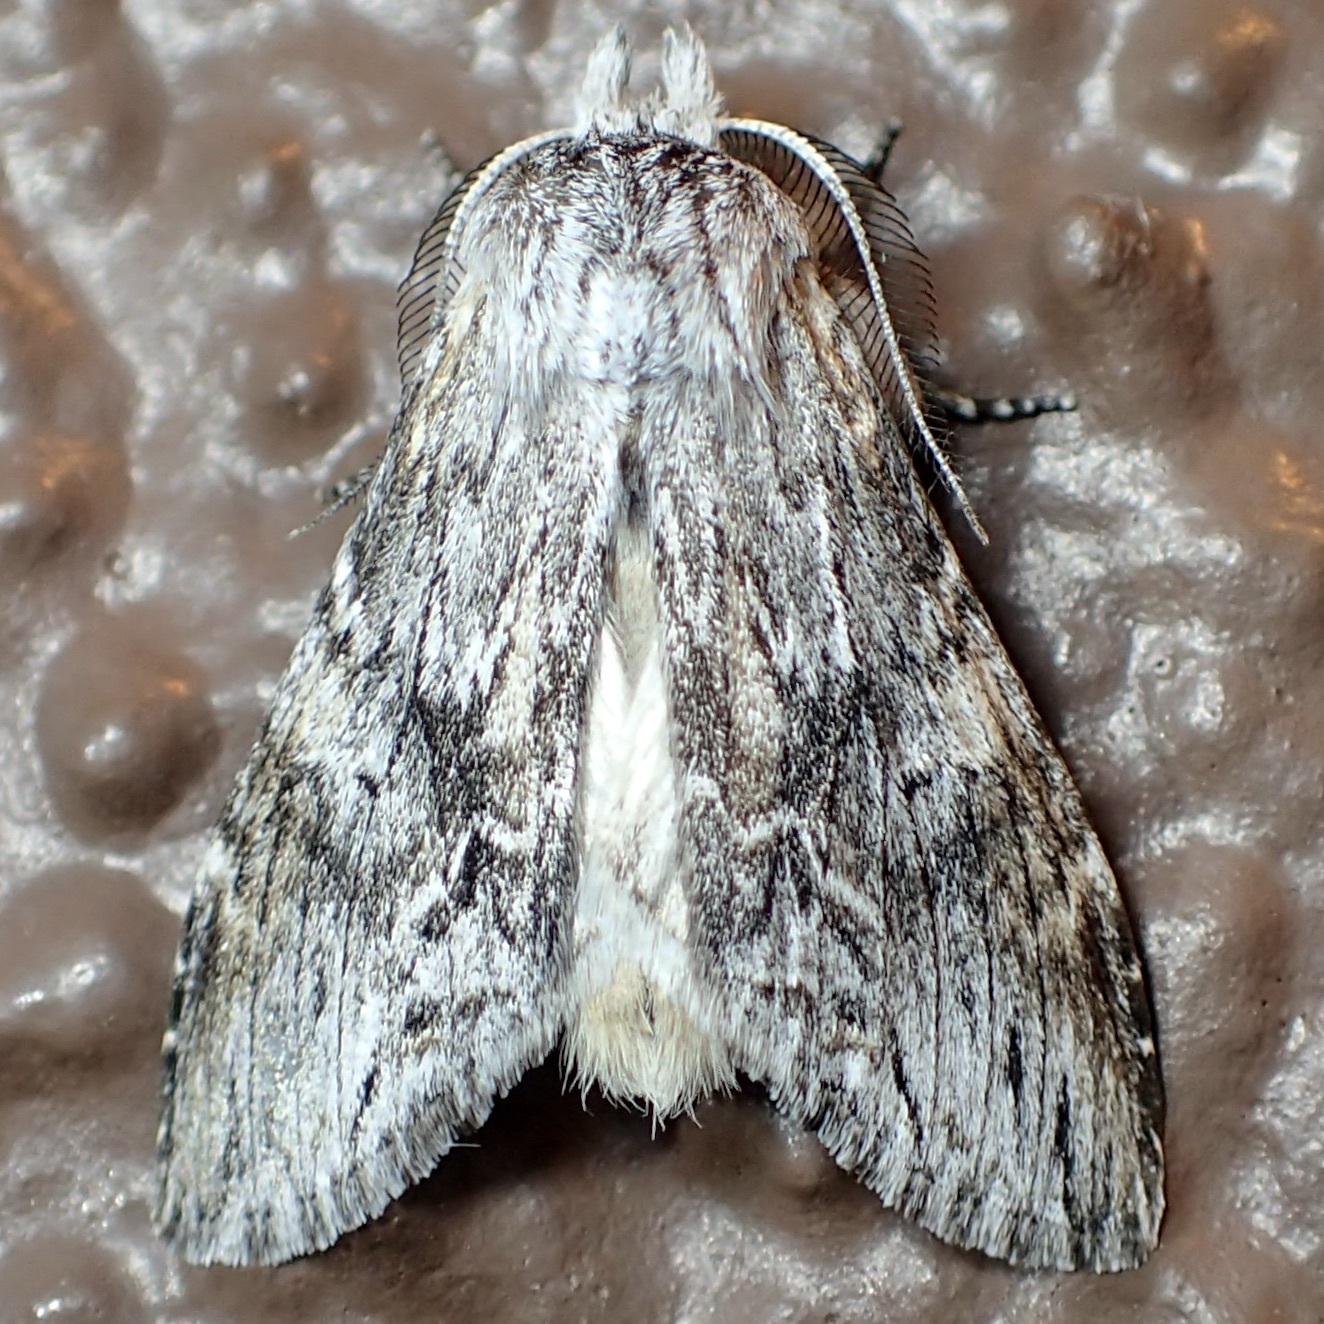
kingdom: Animalia
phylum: Arthropoda
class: Insecta
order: Lepidoptera
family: Notodontidae
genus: Notela
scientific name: Notela jaliscana
